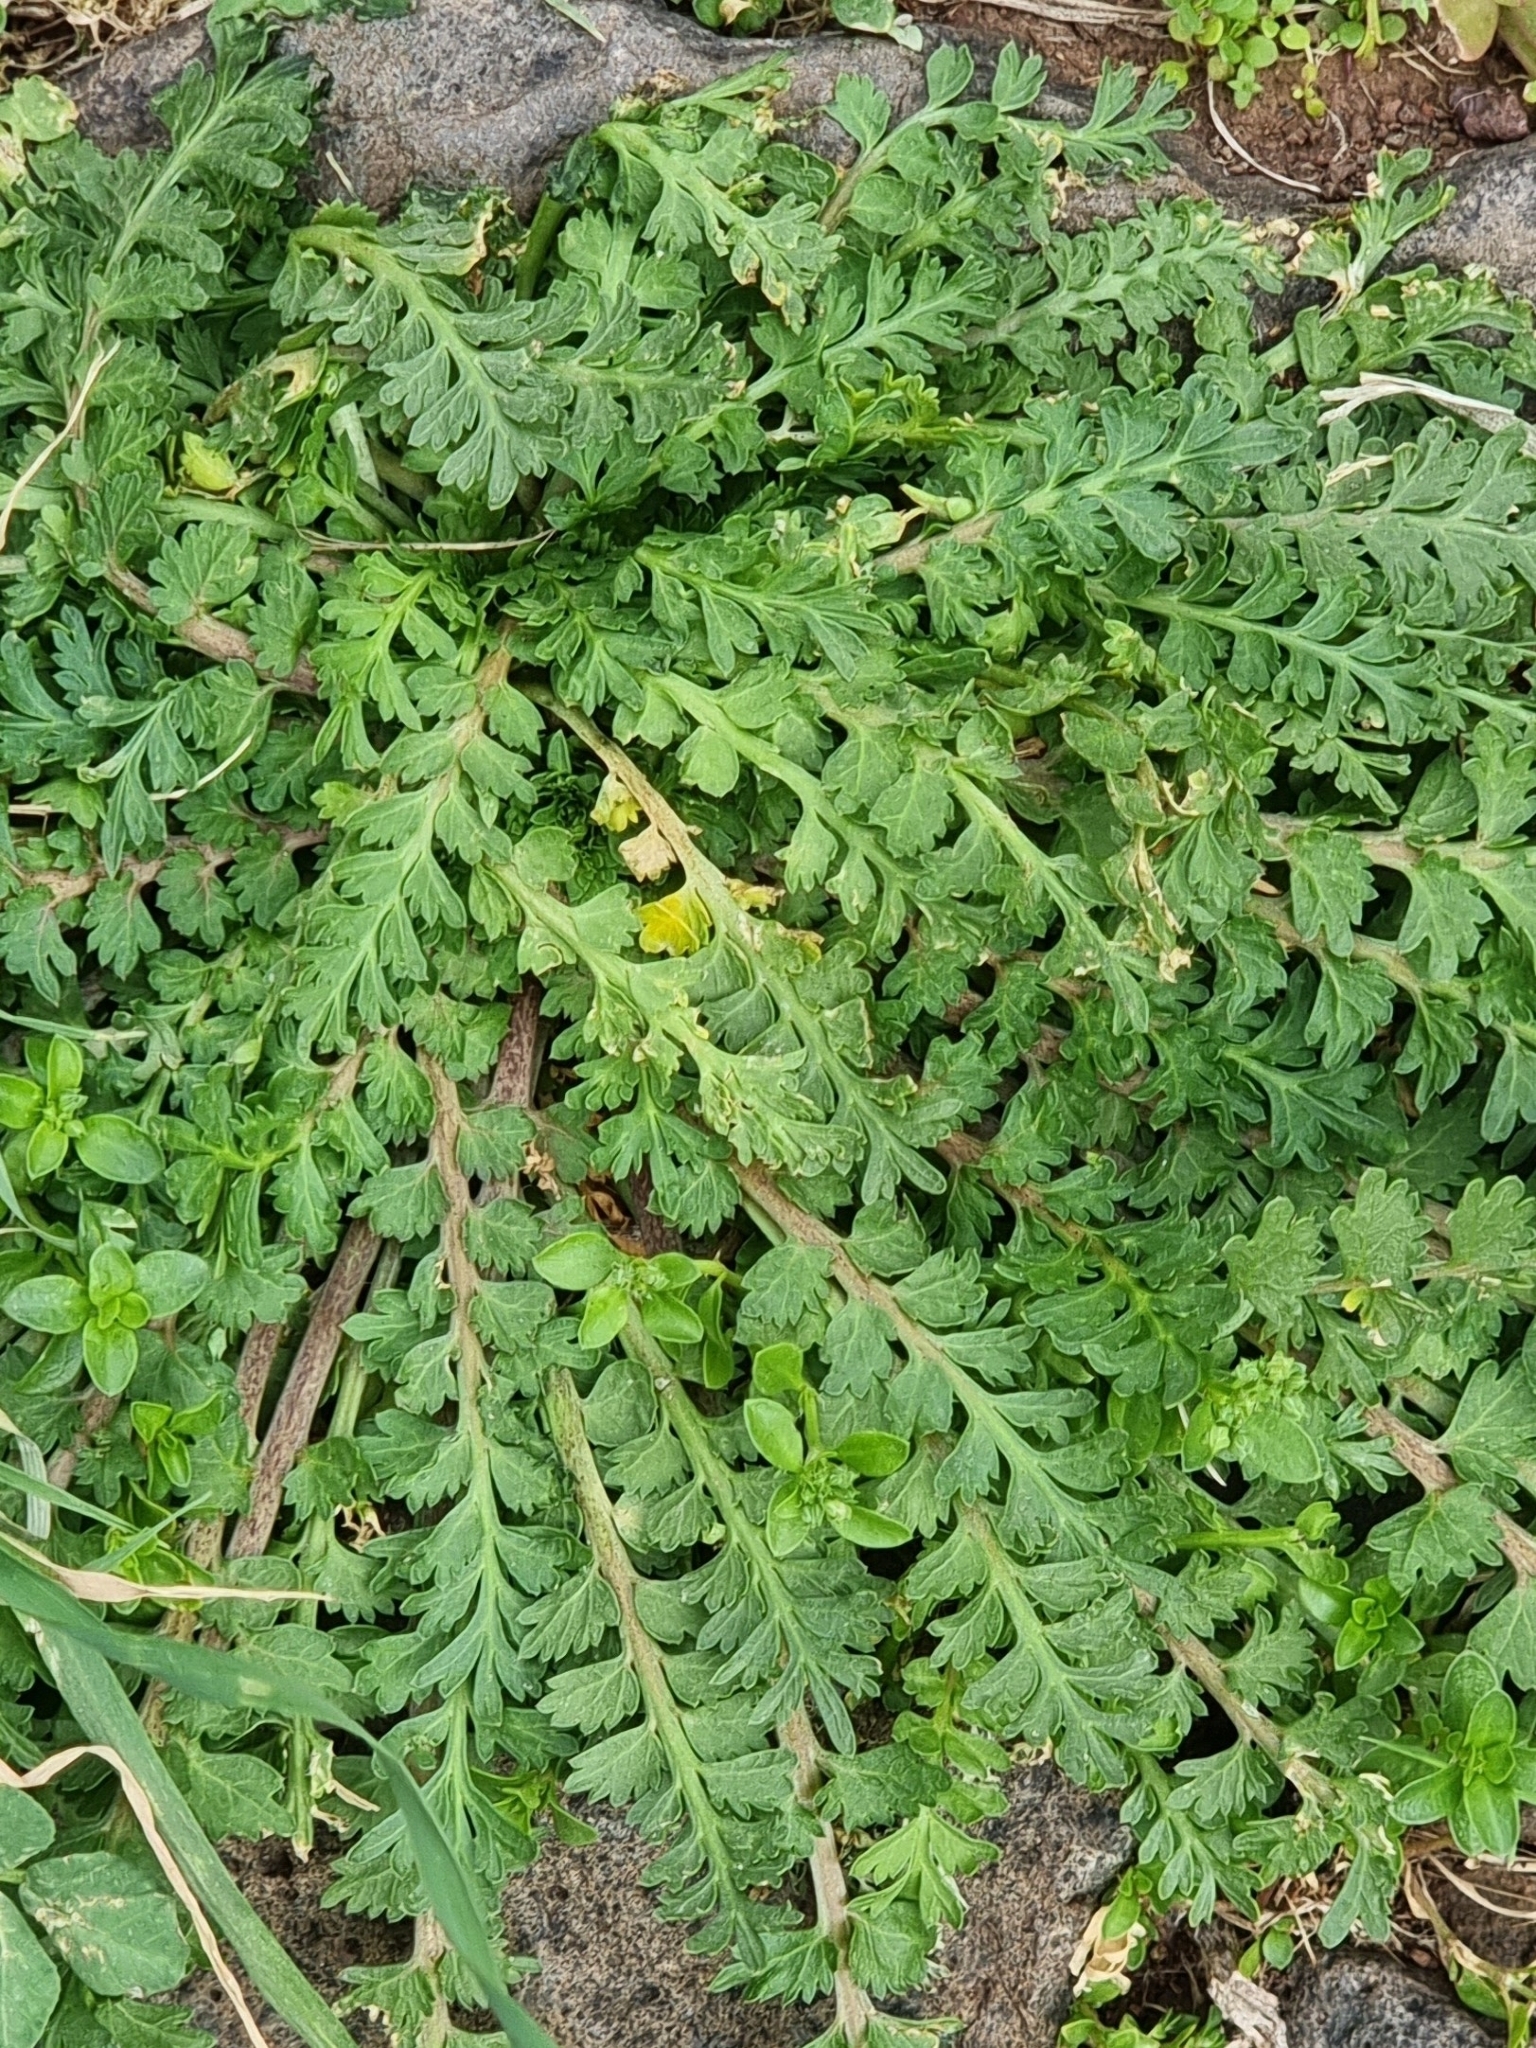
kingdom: Plantae
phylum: Tracheophyta
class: Magnoliopsida
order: Brassicales
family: Brassicaceae
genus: Lepidium
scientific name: Lepidium didymum
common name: Lesser swinecress
